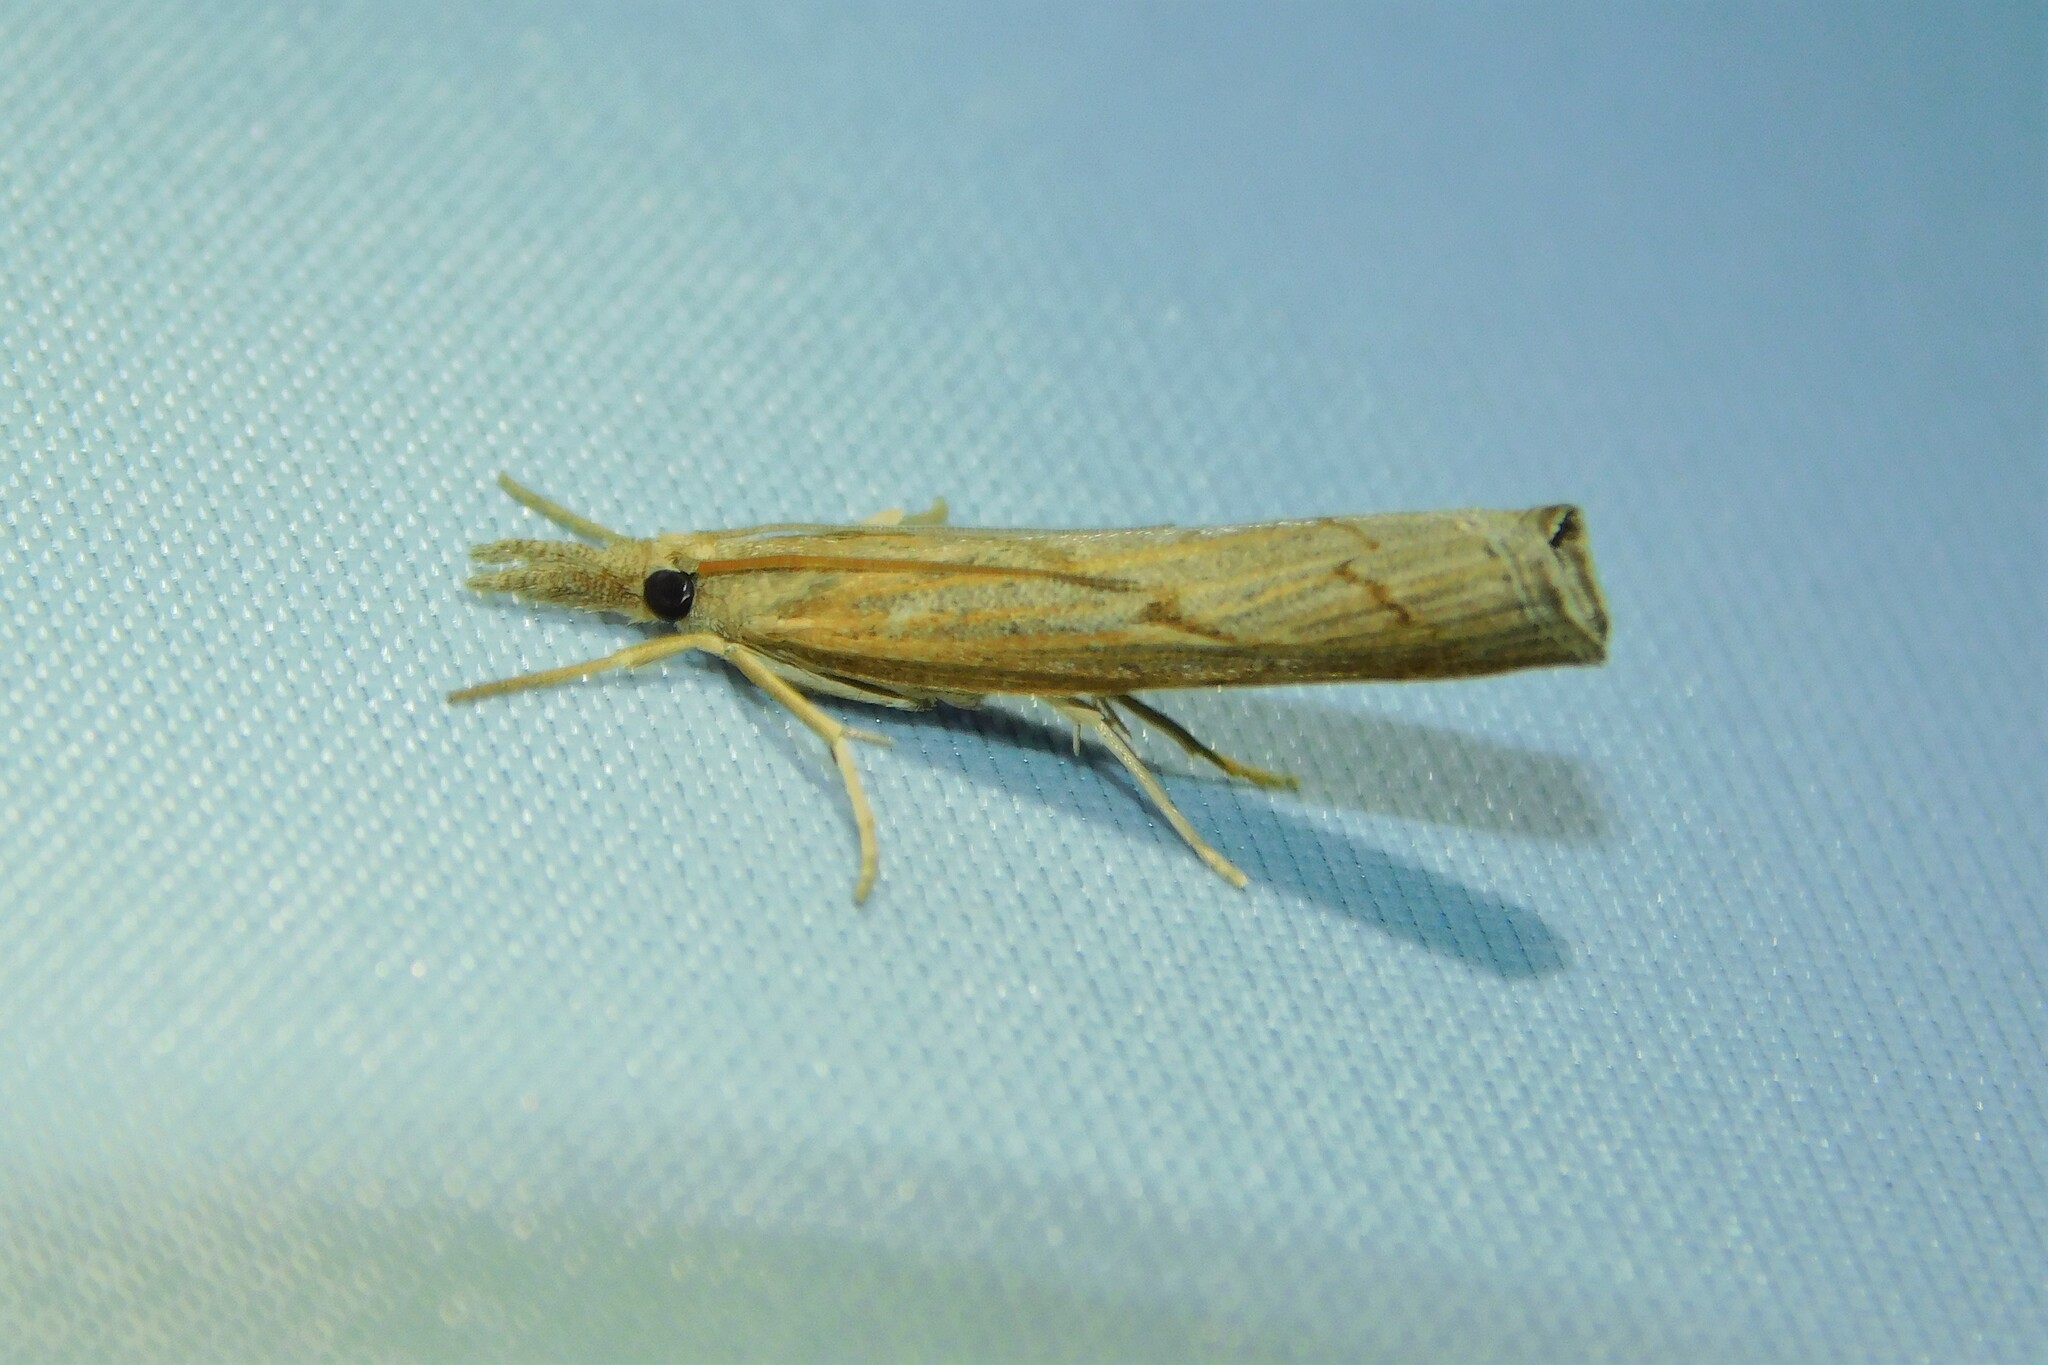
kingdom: Animalia
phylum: Arthropoda
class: Insecta
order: Lepidoptera
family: Crambidae
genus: Pediasia
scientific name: Pediasia contaminella
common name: Waste grass-veneer
